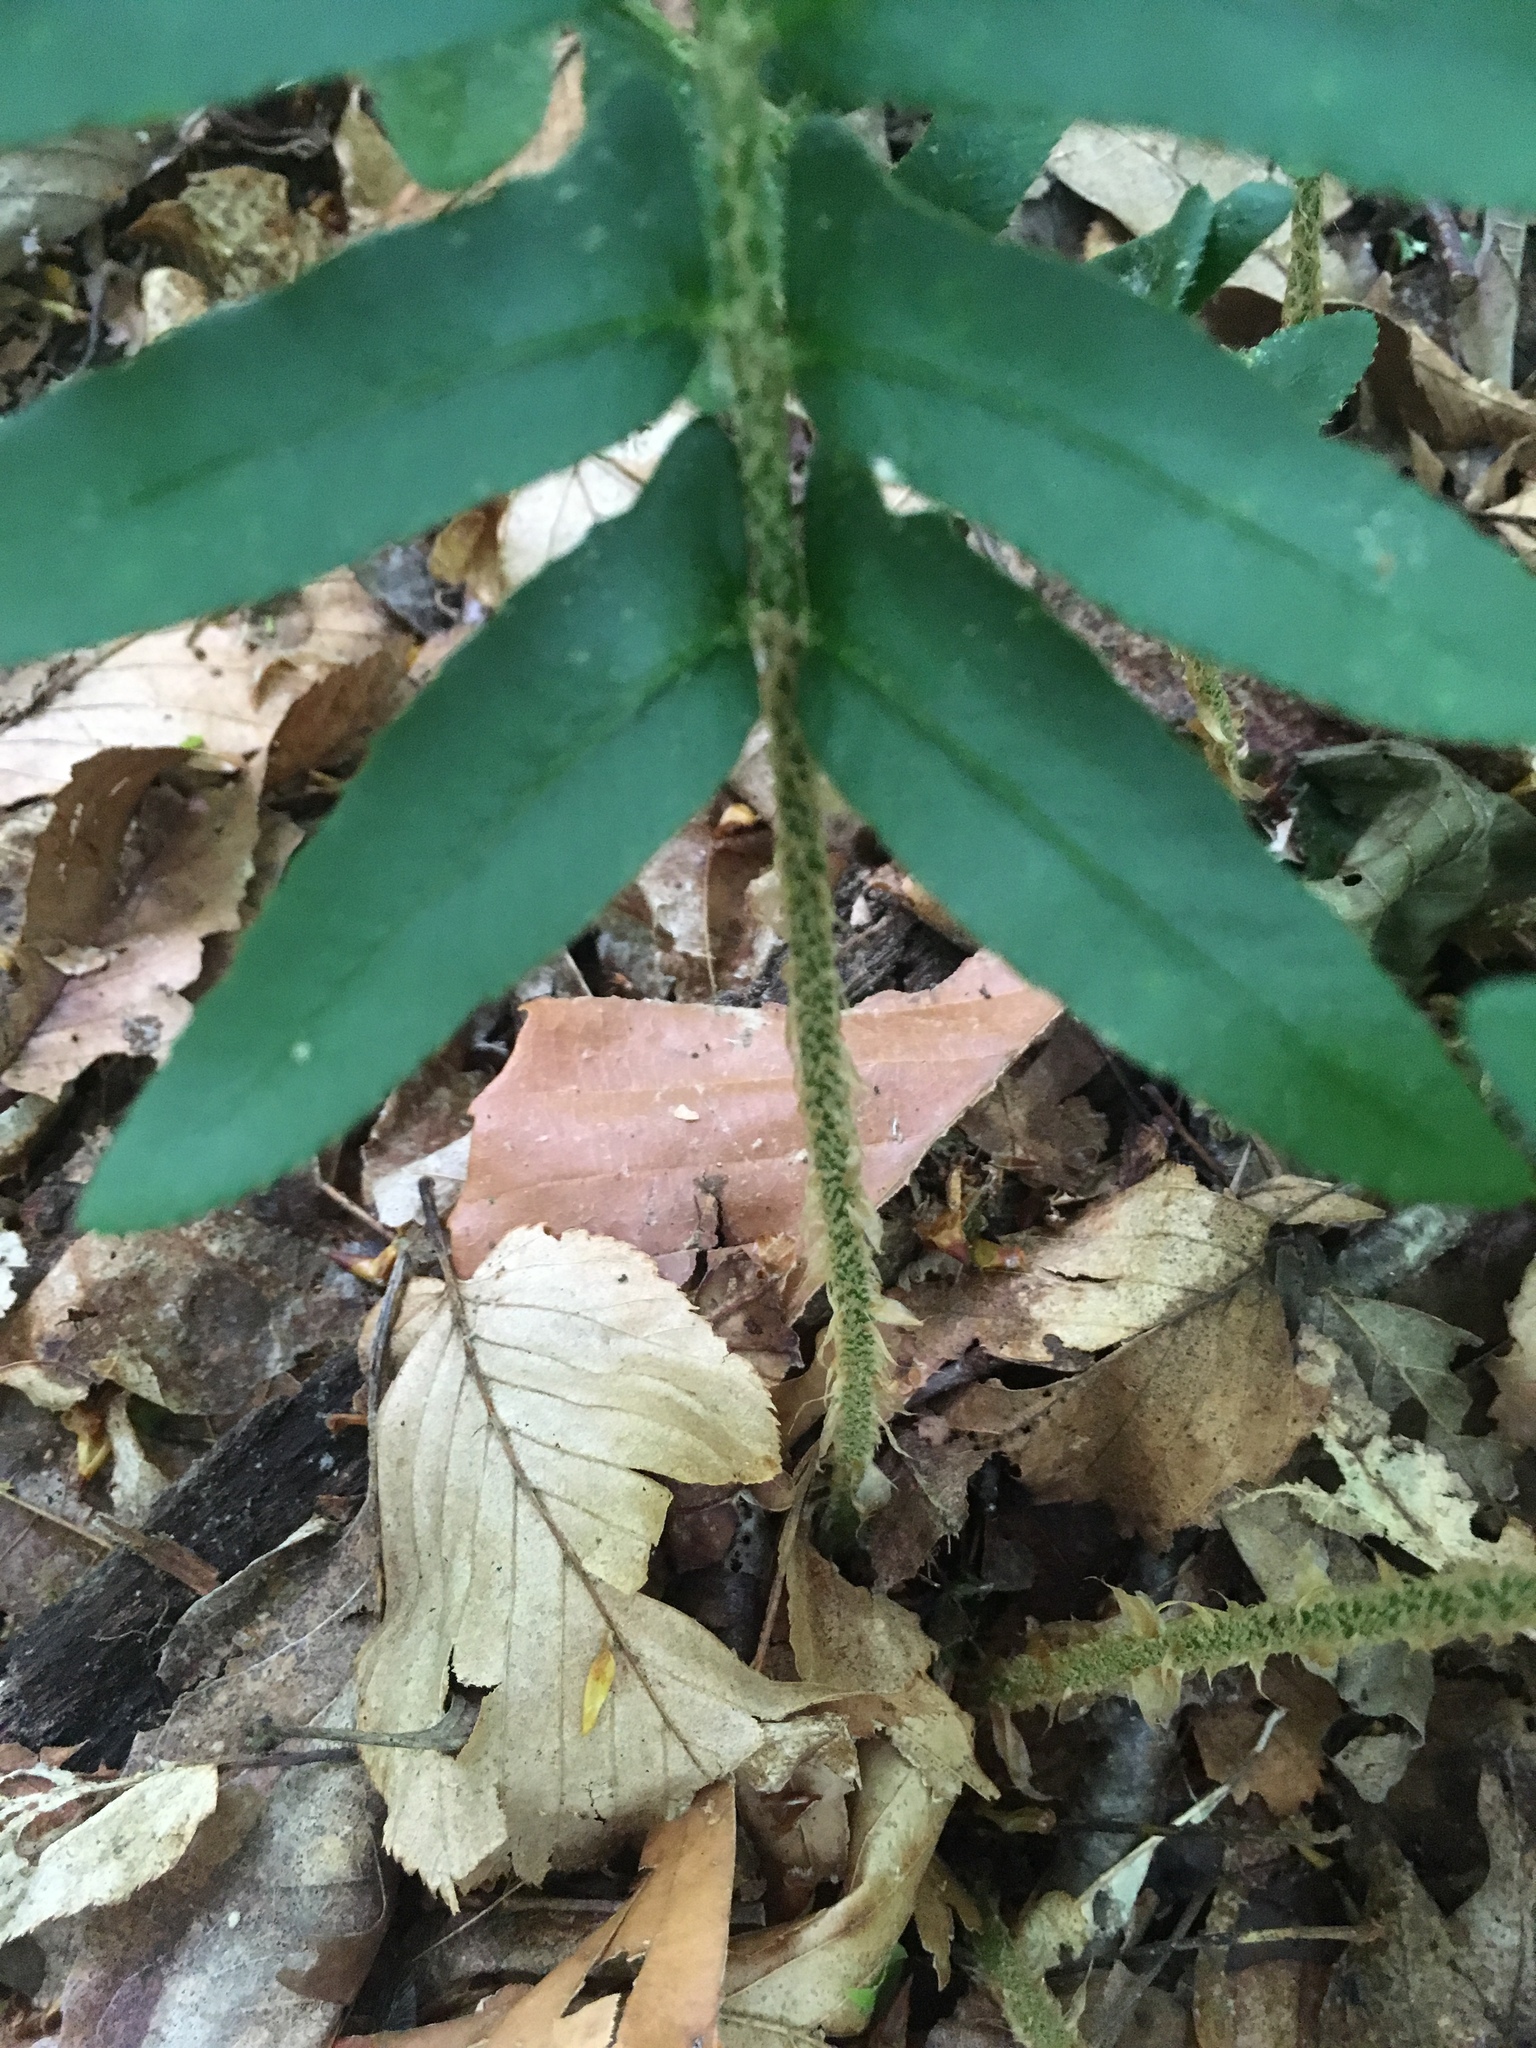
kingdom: Plantae
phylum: Tracheophyta
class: Polypodiopsida
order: Polypodiales
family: Dryopteridaceae
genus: Polystichum
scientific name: Polystichum acrostichoides
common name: Christmas fern
